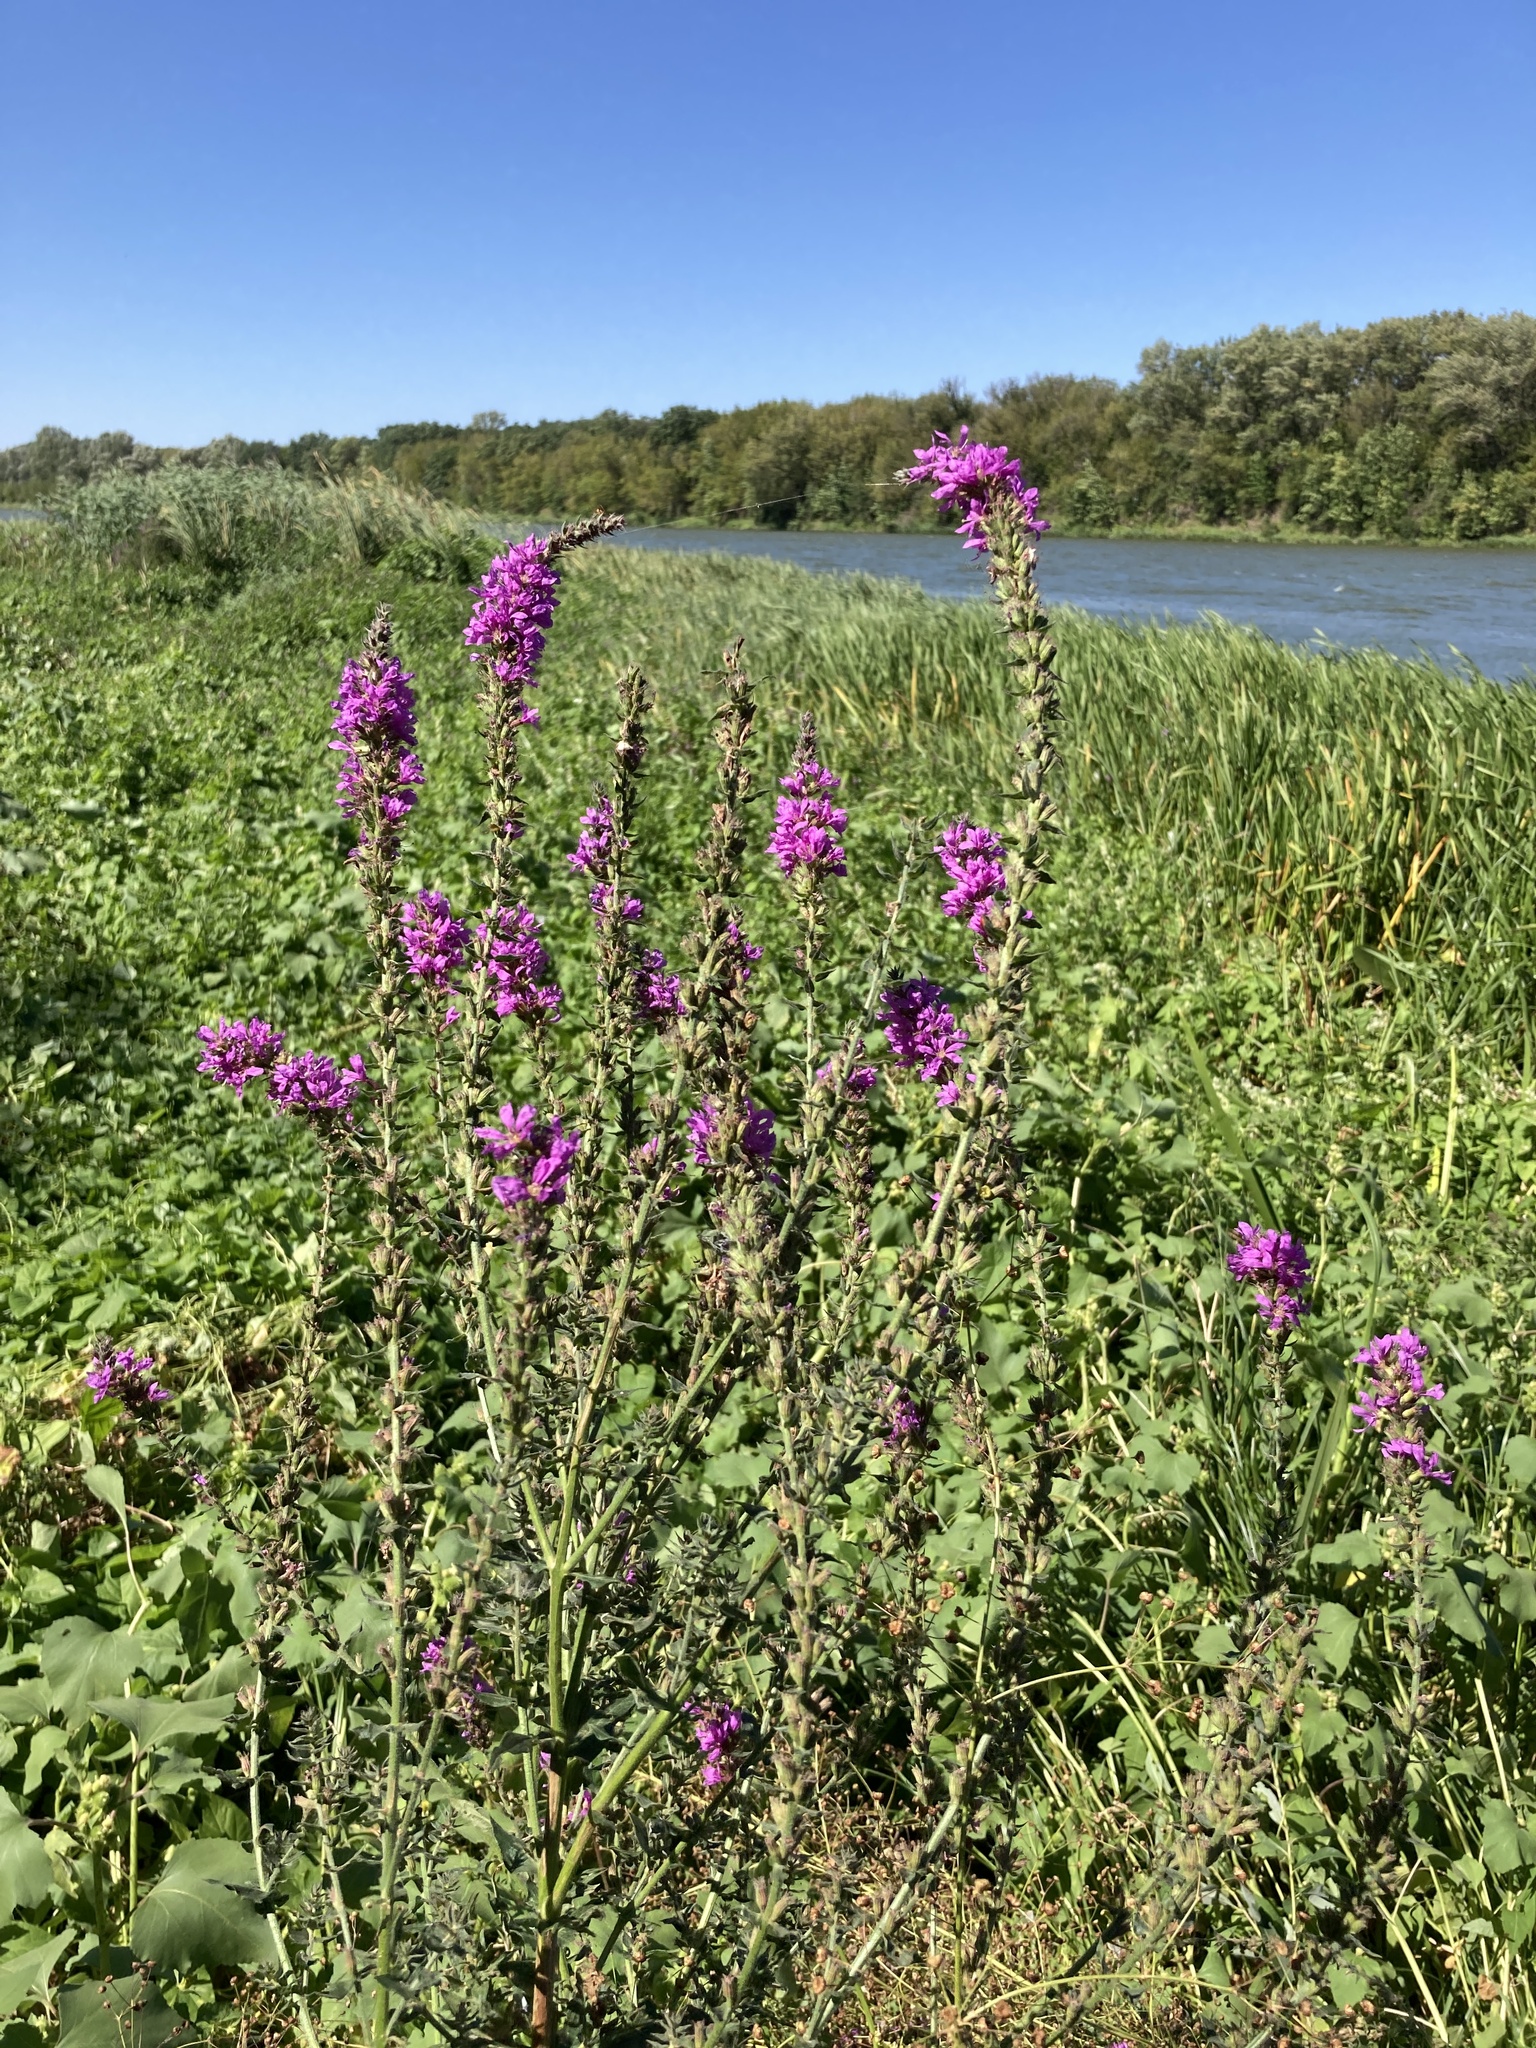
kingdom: Plantae
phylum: Tracheophyta
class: Magnoliopsida
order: Myrtales
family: Lythraceae
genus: Lythrum
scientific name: Lythrum salicaria
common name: Purple loosestrife
